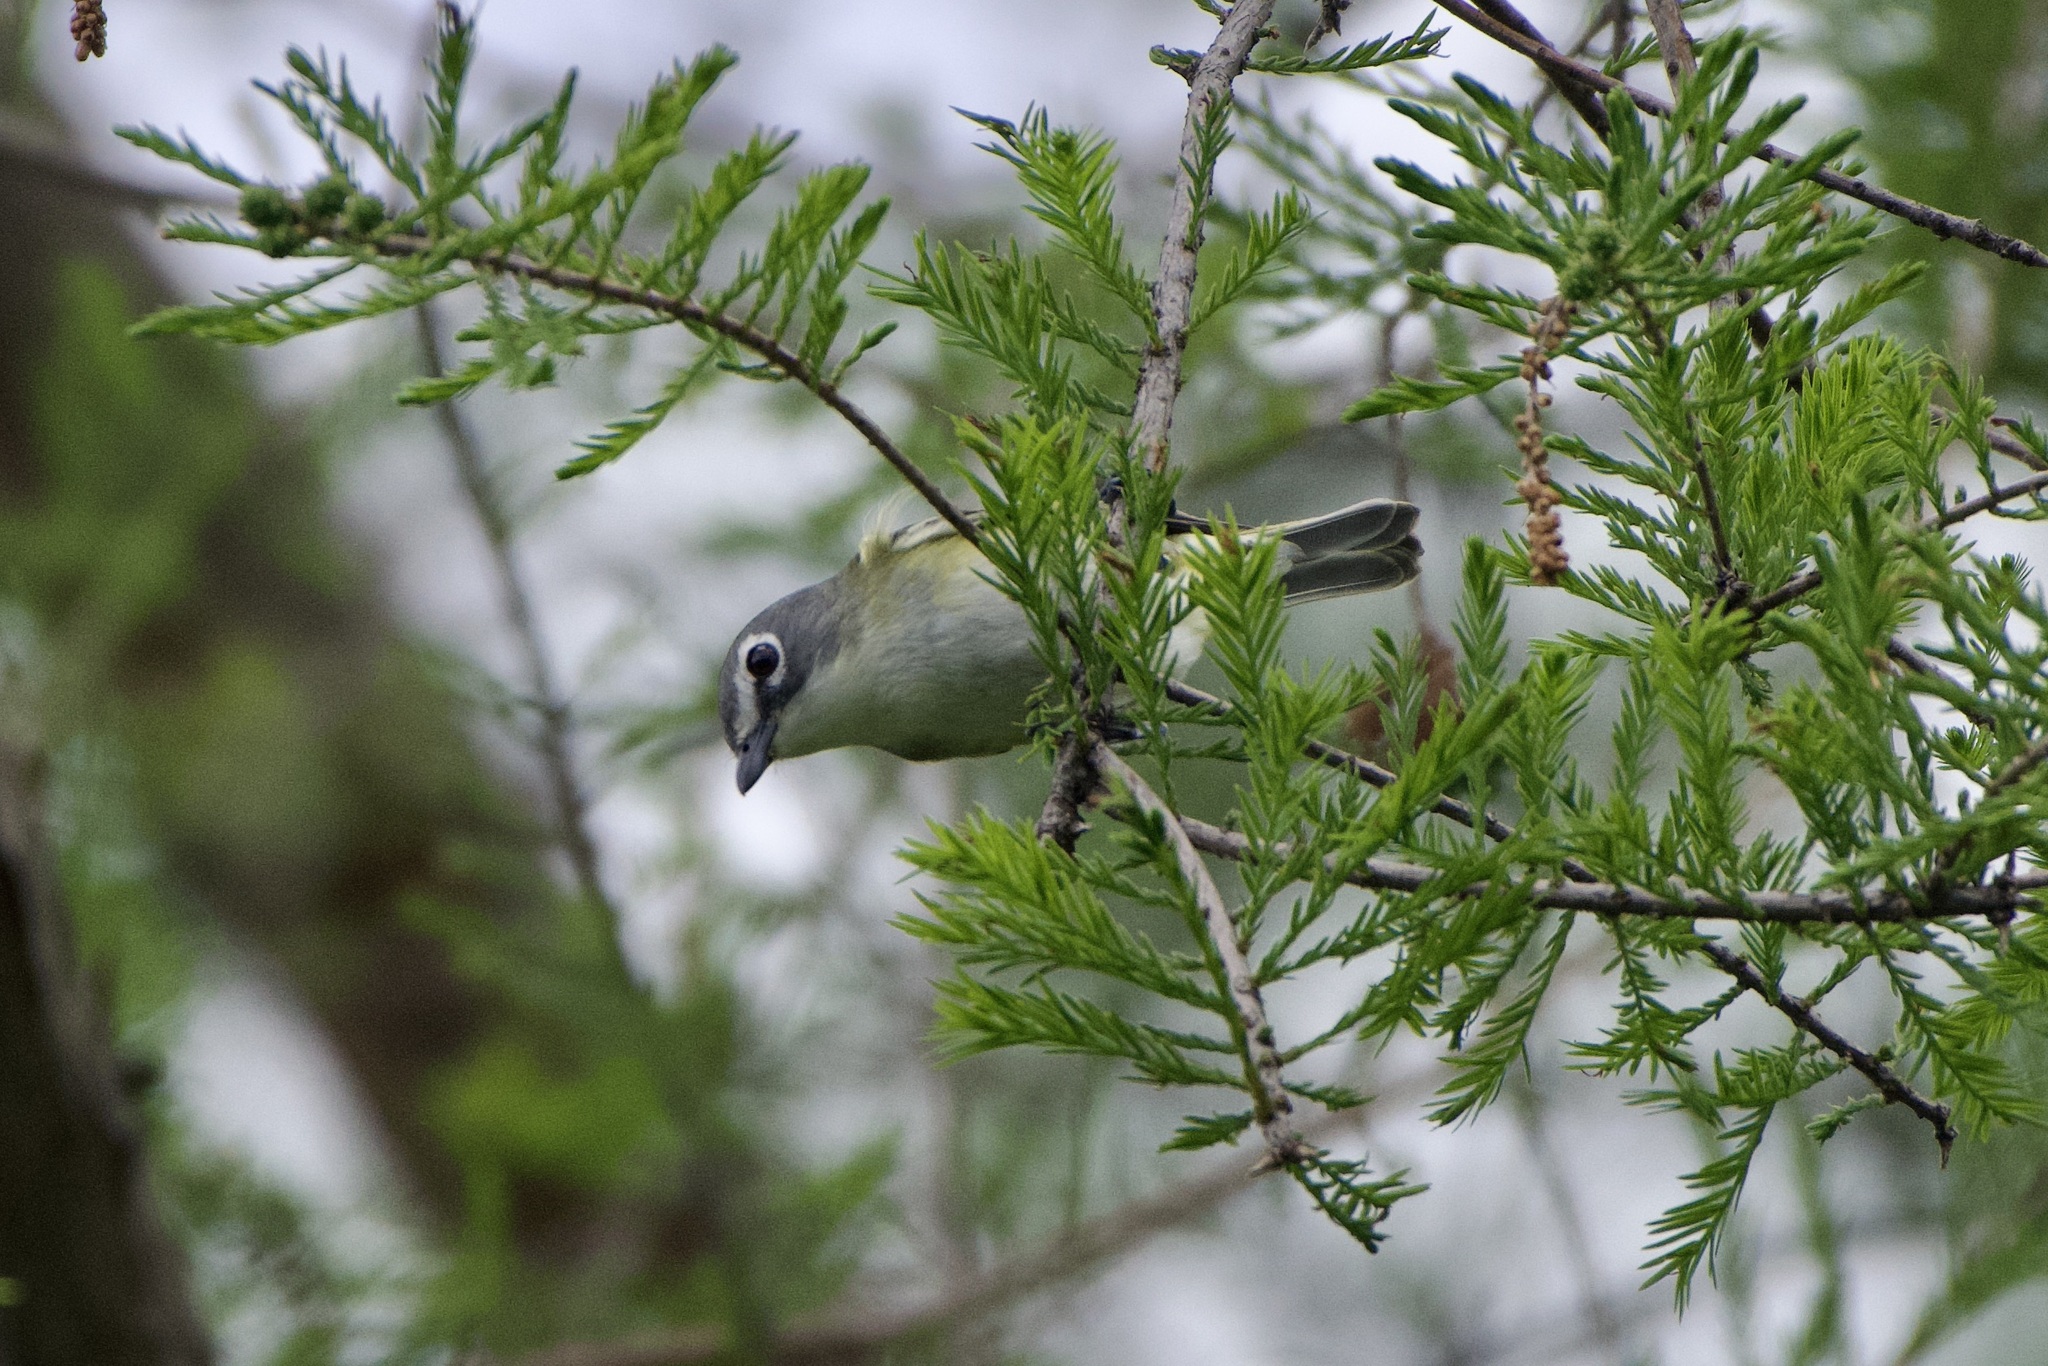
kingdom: Animalia
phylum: Chordata
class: Aves
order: Passeriformes
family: Vireonidae
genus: Vireo
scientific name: Vireo solitarius
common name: Blue-headed vireo
